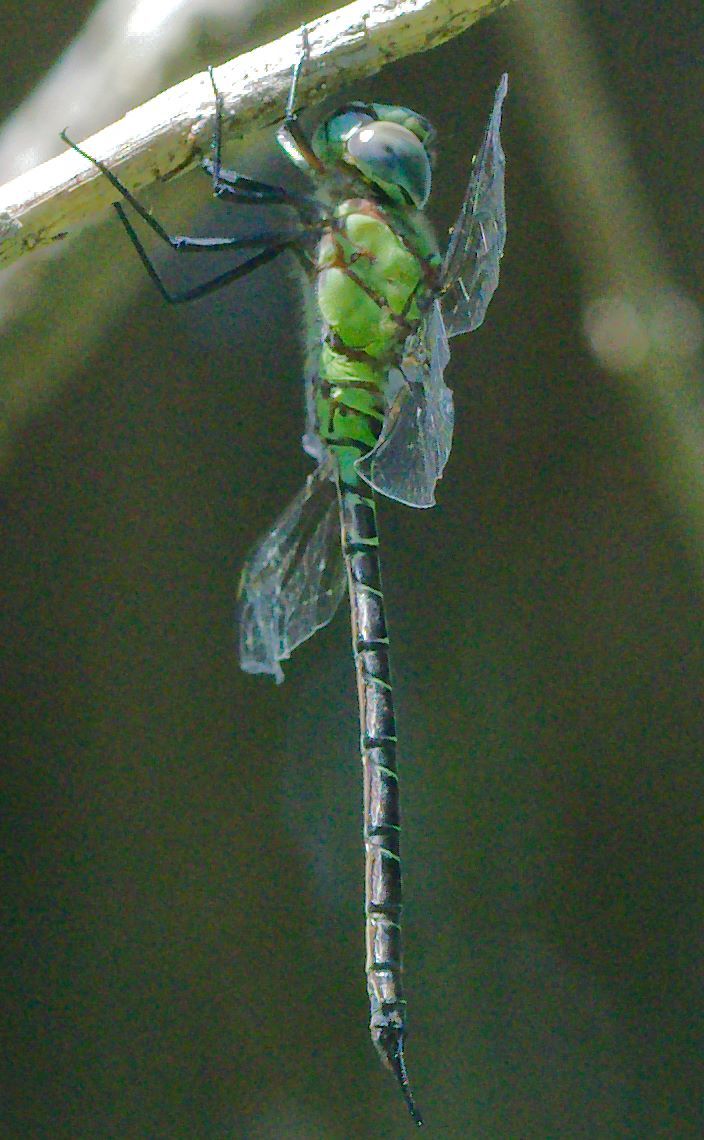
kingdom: Animalia
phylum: Arthropoda
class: Insecta
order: Odonata
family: Aeshnidae
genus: Coryphaeschna
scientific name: Coryphaeschna adnexa
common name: Blue-faced darner
